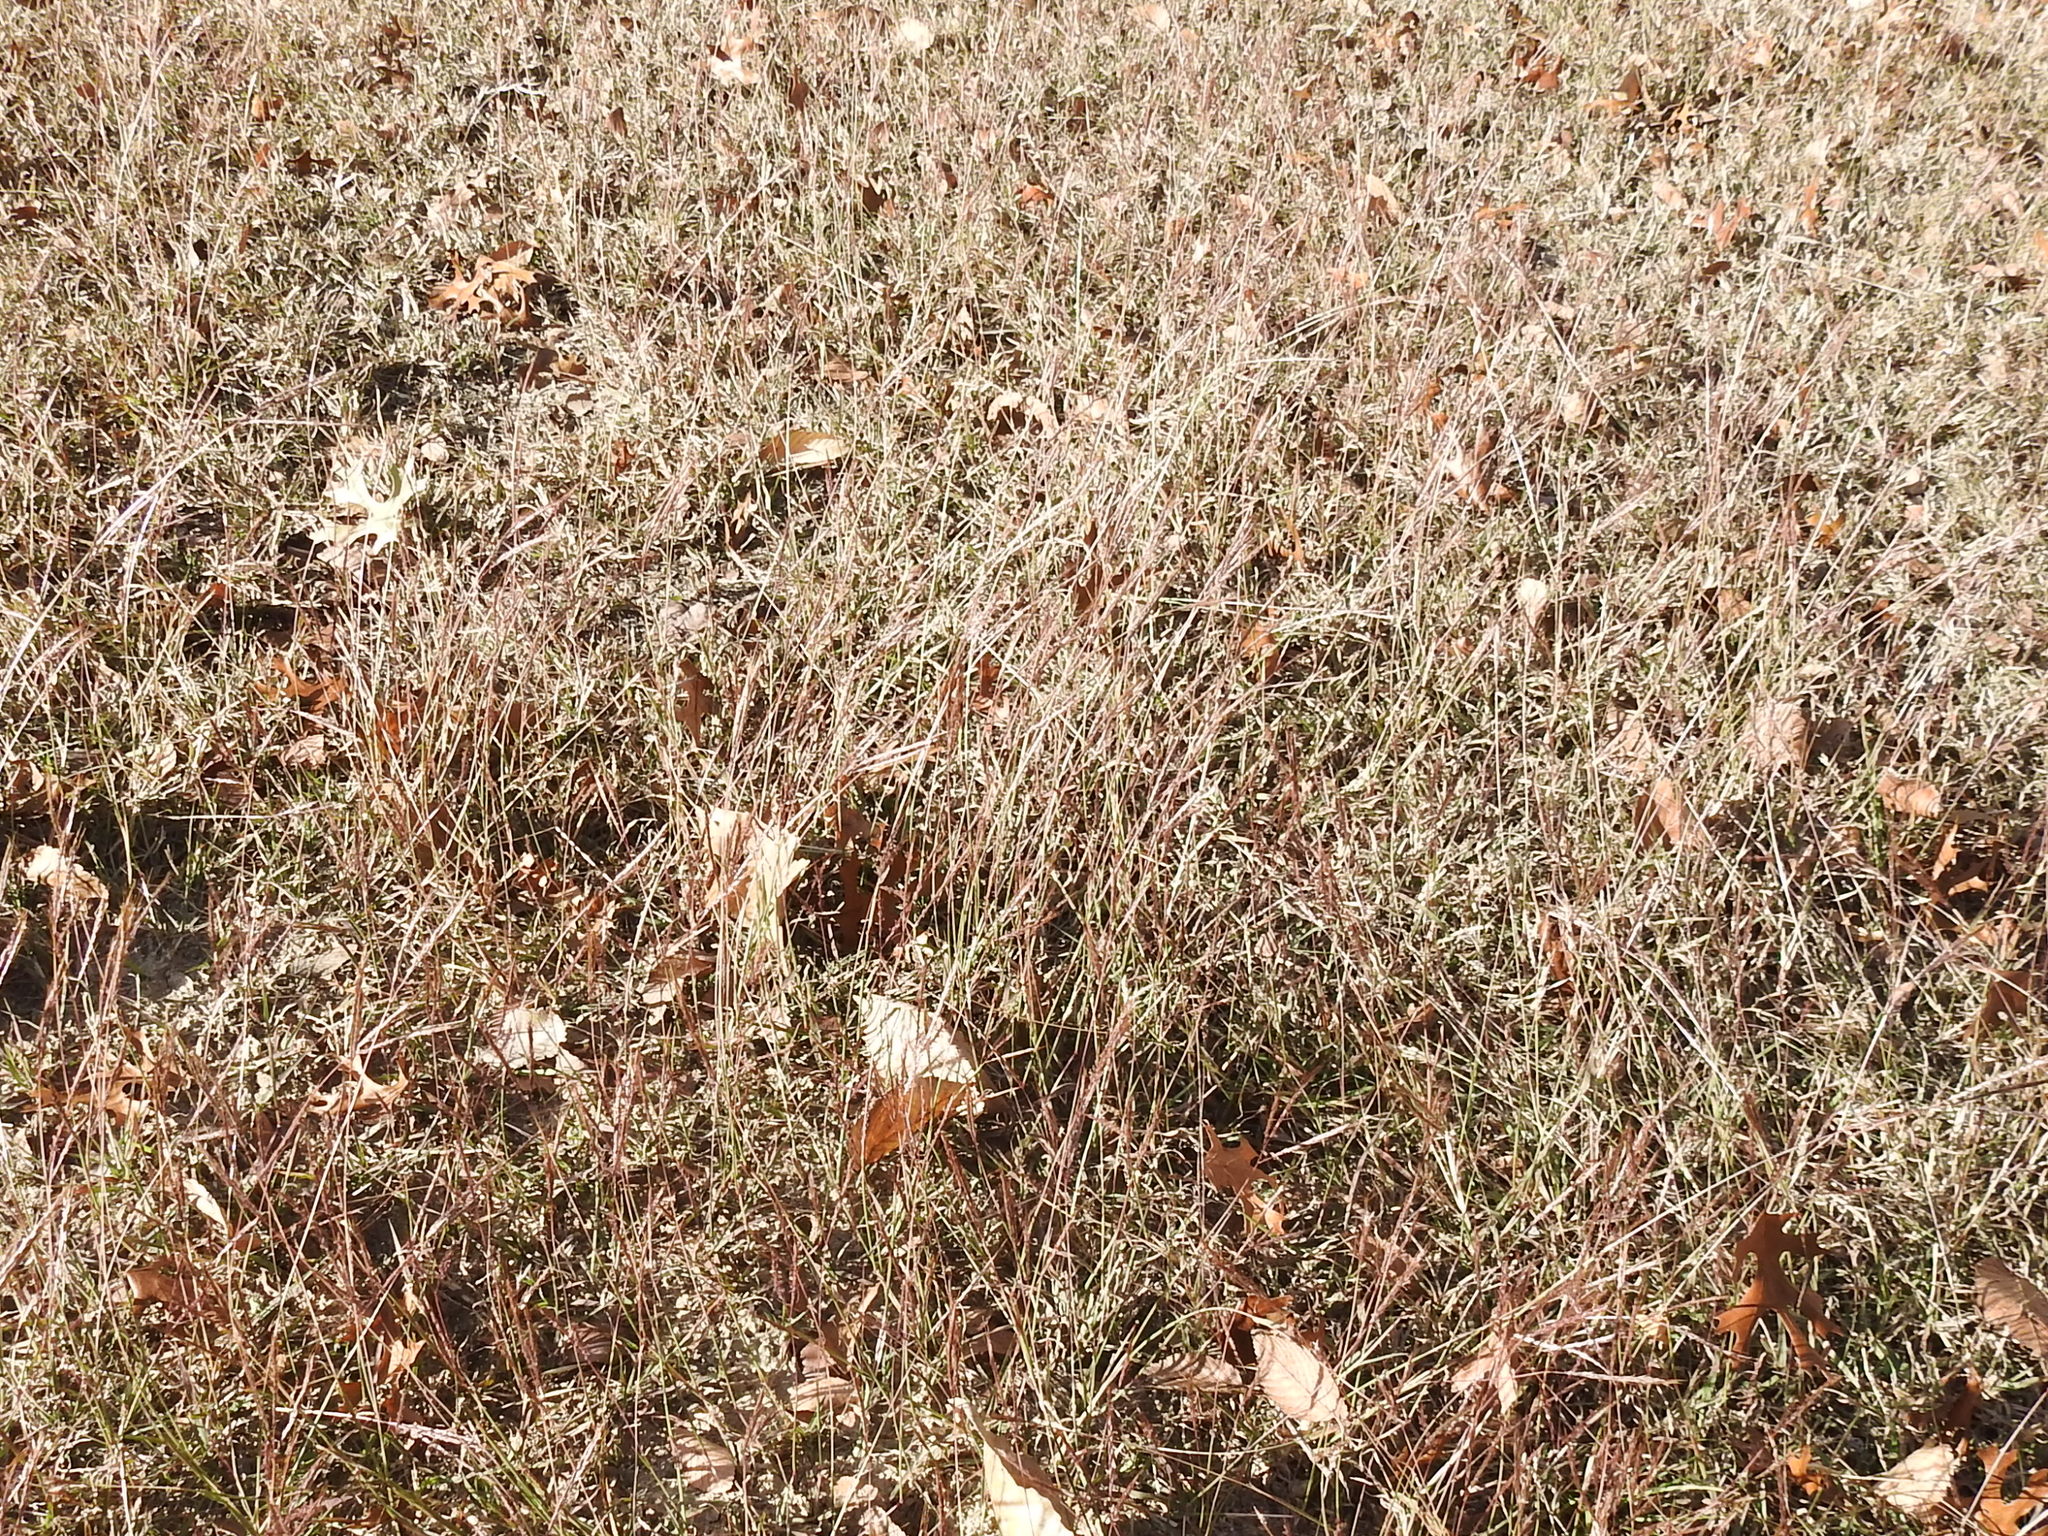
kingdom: Plantae
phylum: Tracheophyta
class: Liliopsida
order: Poales
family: Poaceae
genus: Bothriochloa
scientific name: Bothriochloa ischaemum
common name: Yellow bluestem
